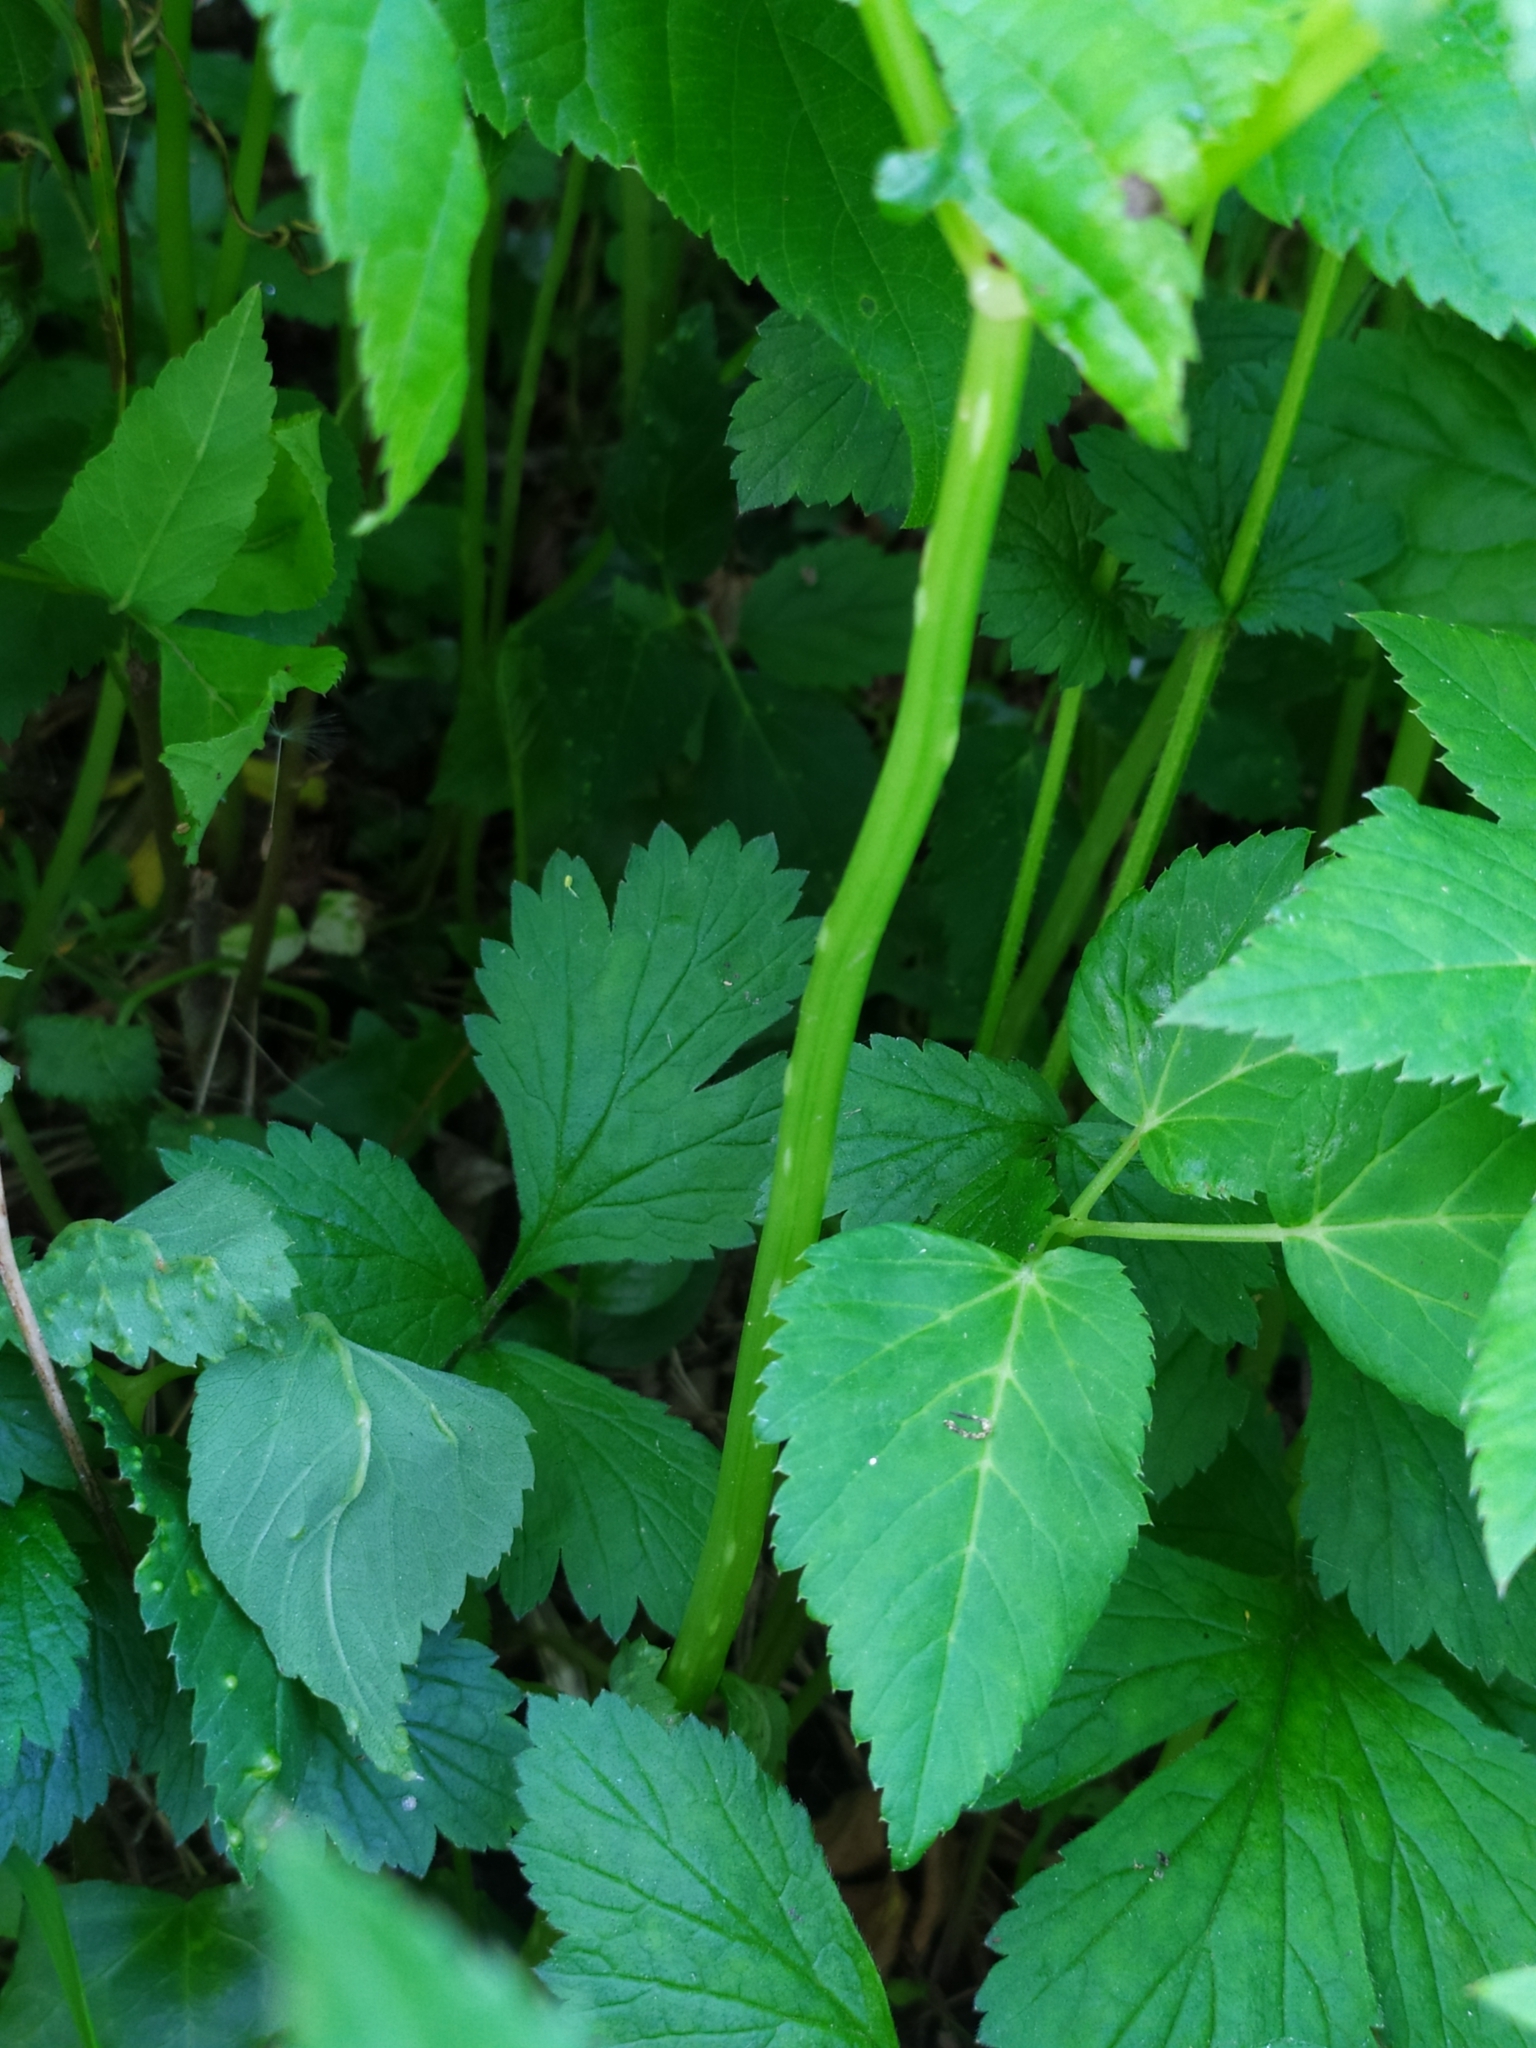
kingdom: Fungi
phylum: Ascomycota
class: Taphrinomycetes
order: Taphrinales
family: Taphrinaceae
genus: Protomyces
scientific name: Protomyces macrosporus
